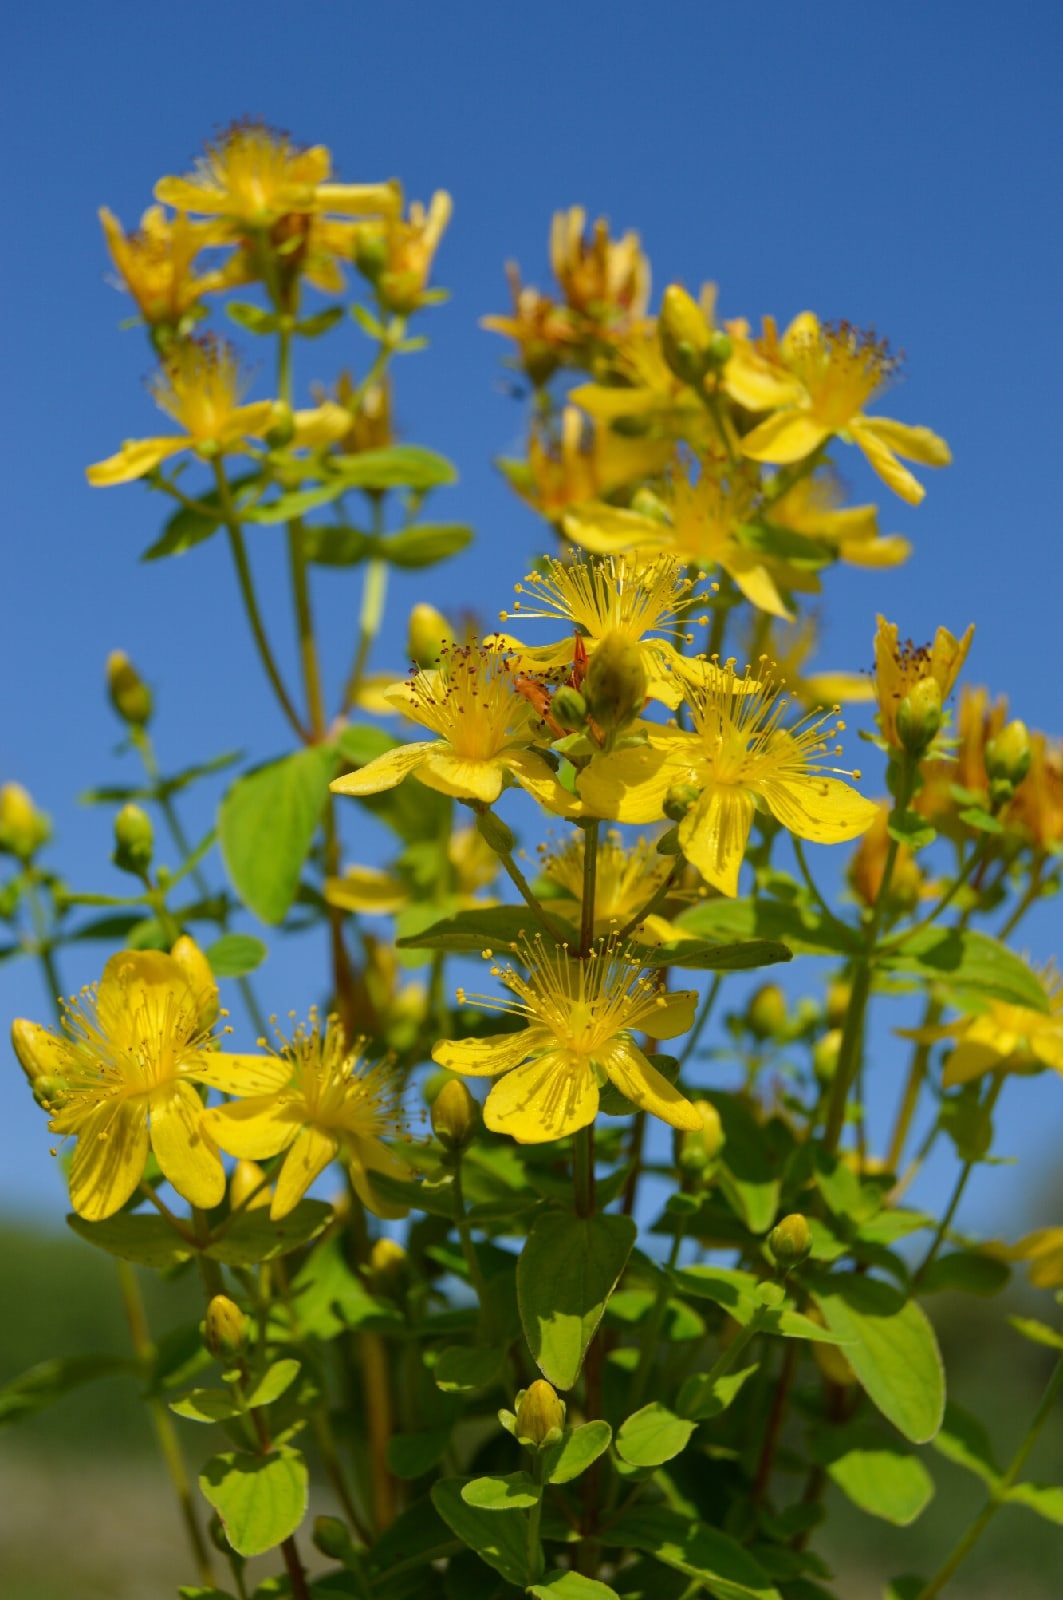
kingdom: Plantae
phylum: Tracheophyta
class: Magnoliopsida
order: Malpighiales
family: Hypericaceae
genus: Hypericum
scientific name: Hypericum maculatum
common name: Imperforate st. john's-wort
